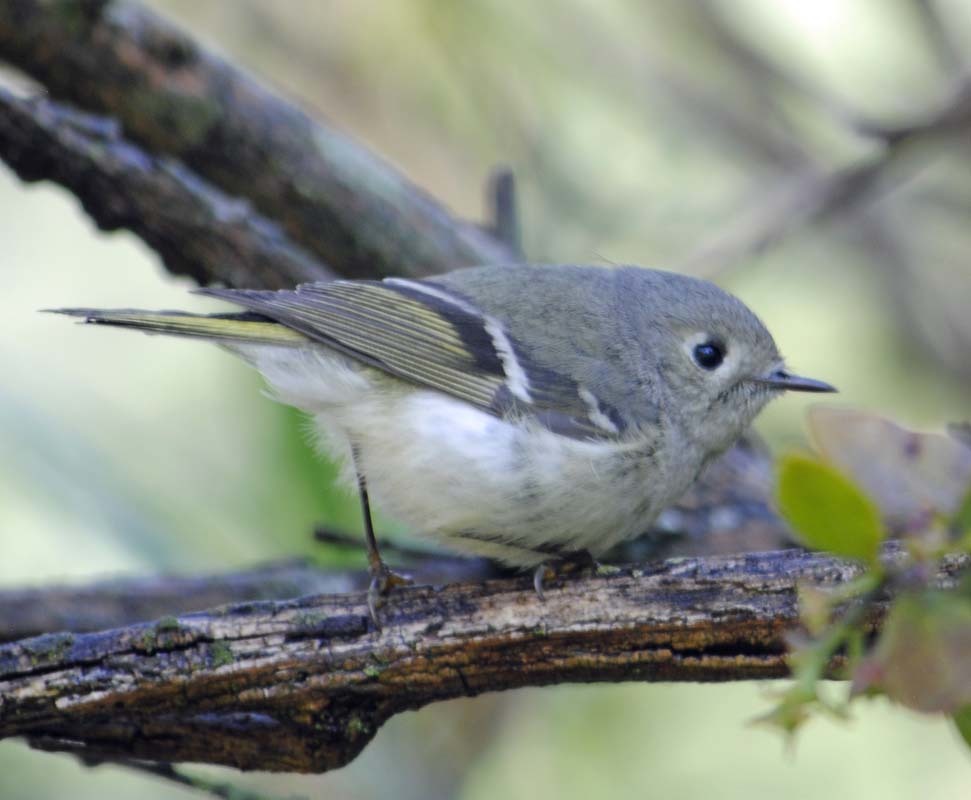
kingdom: Animalia
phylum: Chordata
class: Aves
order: Passeriformes
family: Regulidae
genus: Regulus
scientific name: Regulus calendula
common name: Ruby-crowned kinglet
